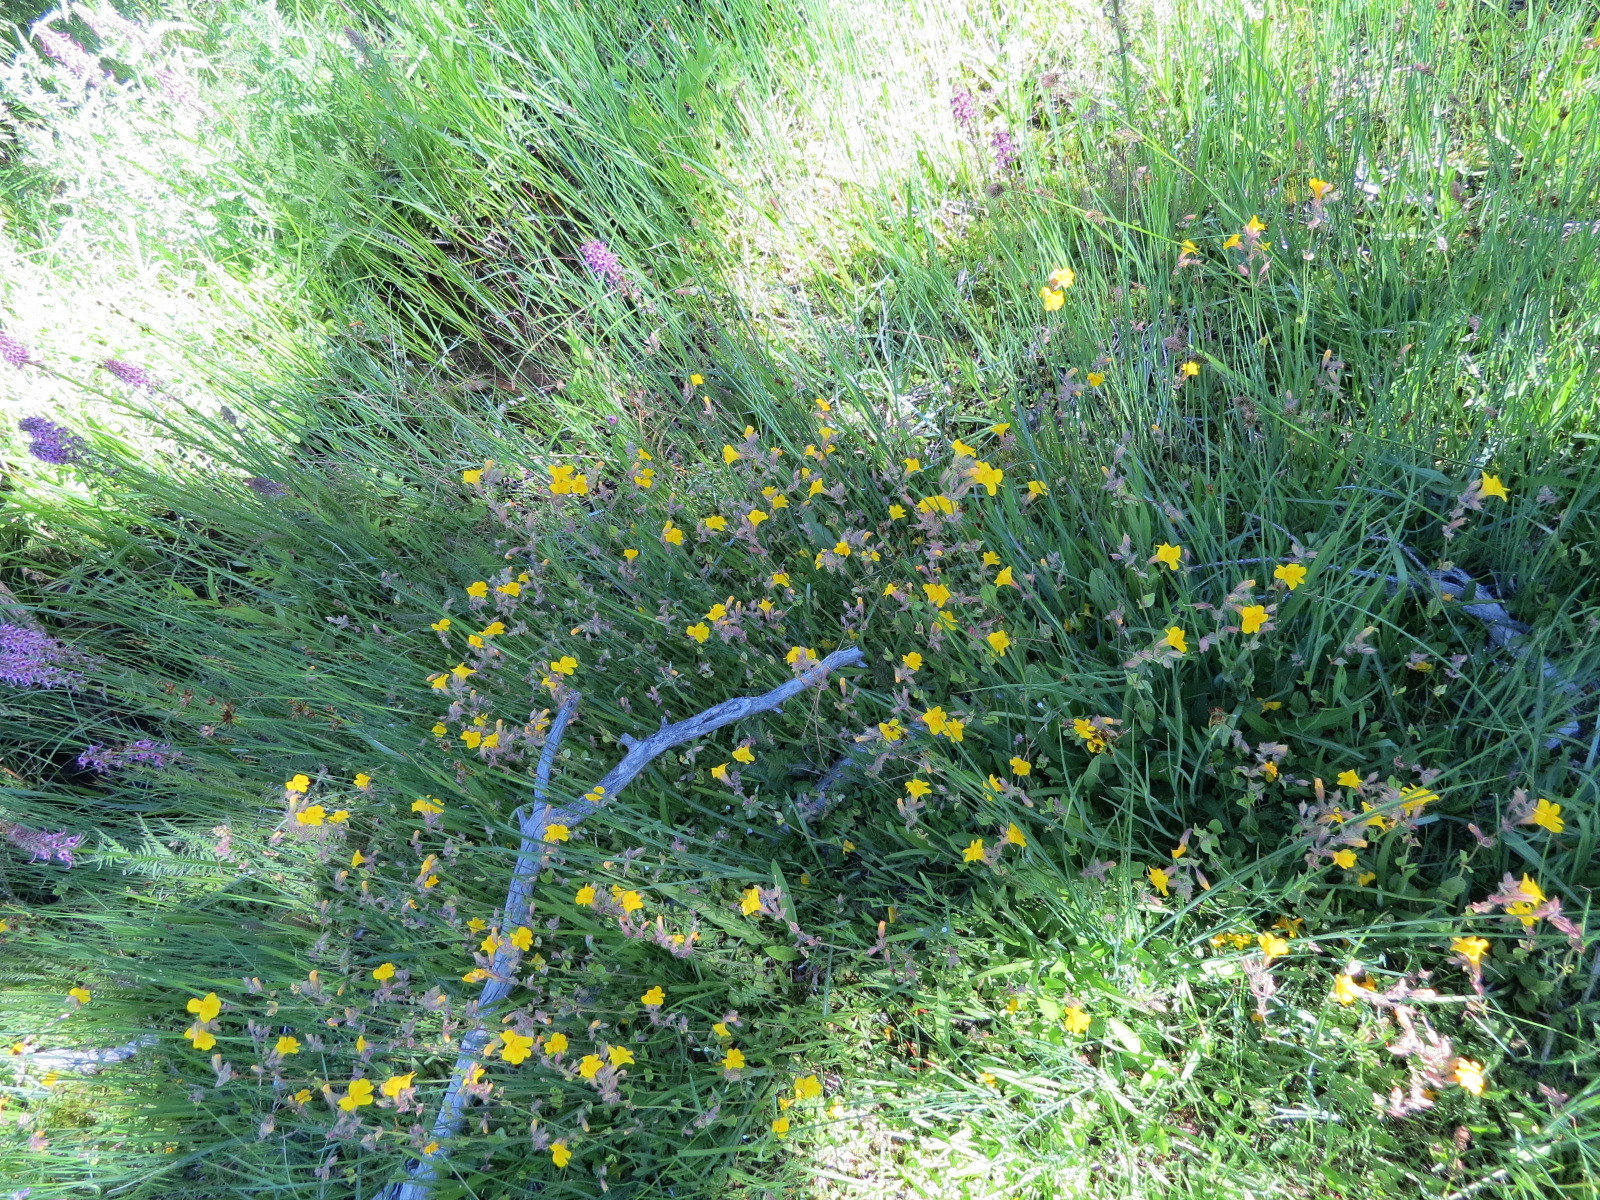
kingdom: Plantae
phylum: Tracheophyta
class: Magnoliopsida
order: Lamiales
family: Phrymaceae
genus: Erythranthe
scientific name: Erythranthe guttata
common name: Monkeyflower
